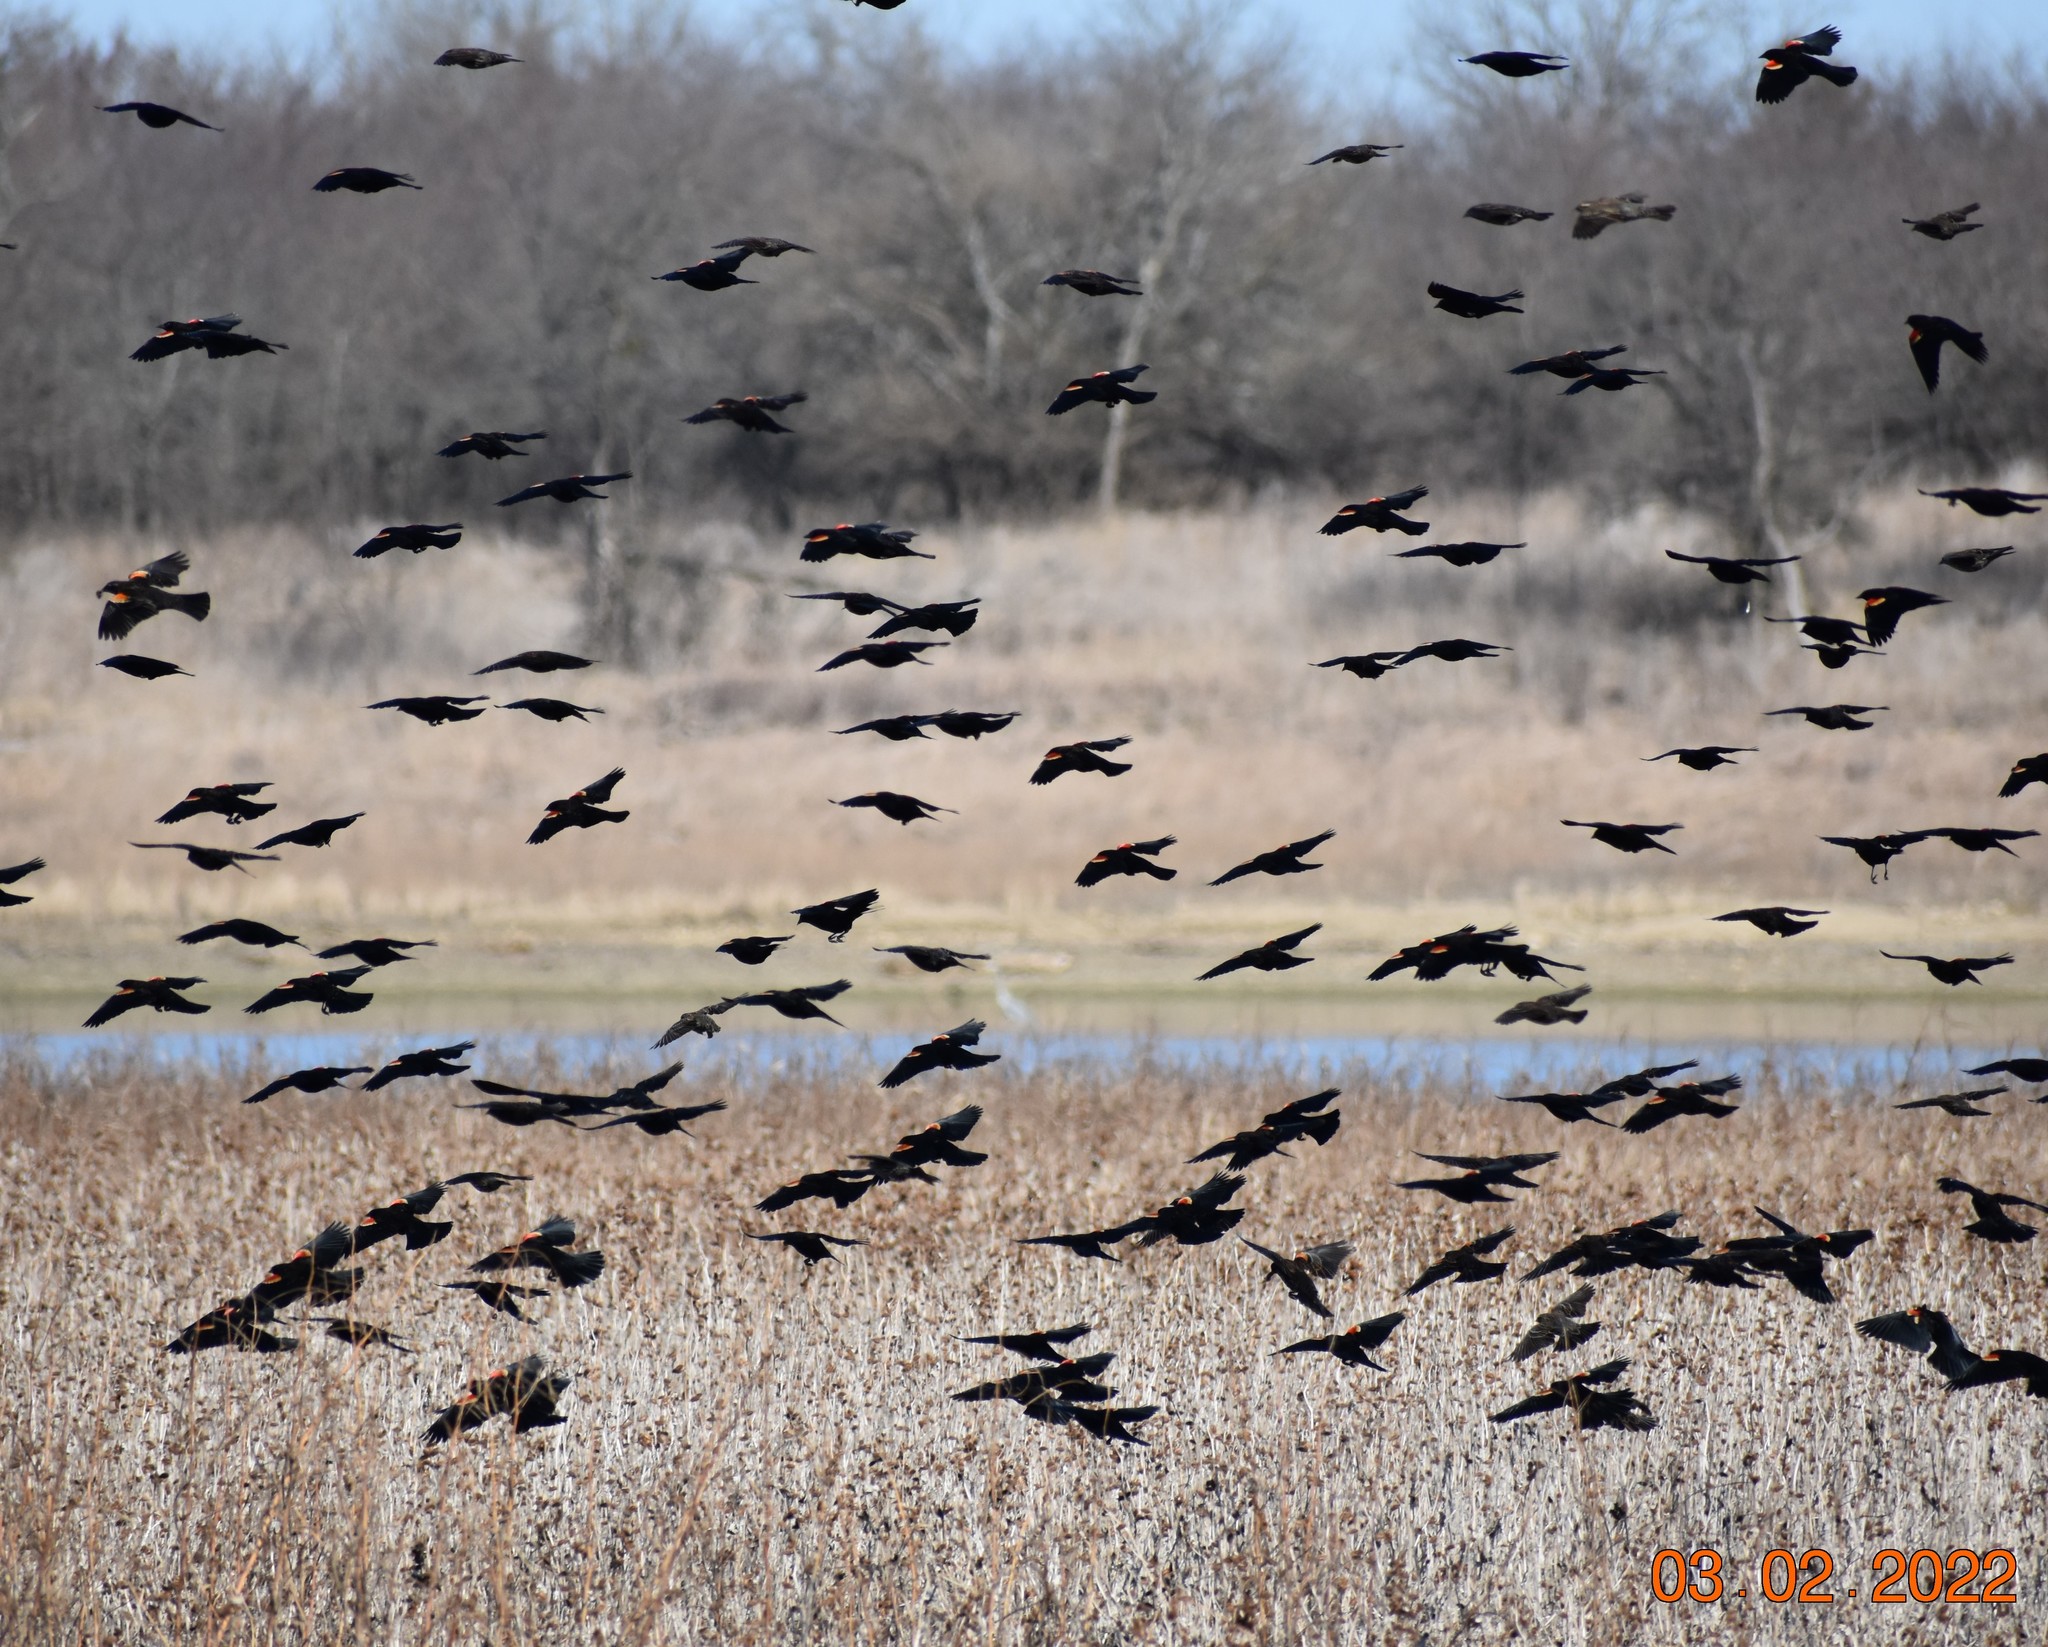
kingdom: Animalia
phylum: Chordata
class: Aves
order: Passeriformes
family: Icteridae
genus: Agelaius
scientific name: Agelaius phoeniceus
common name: Red-winged blackbird
